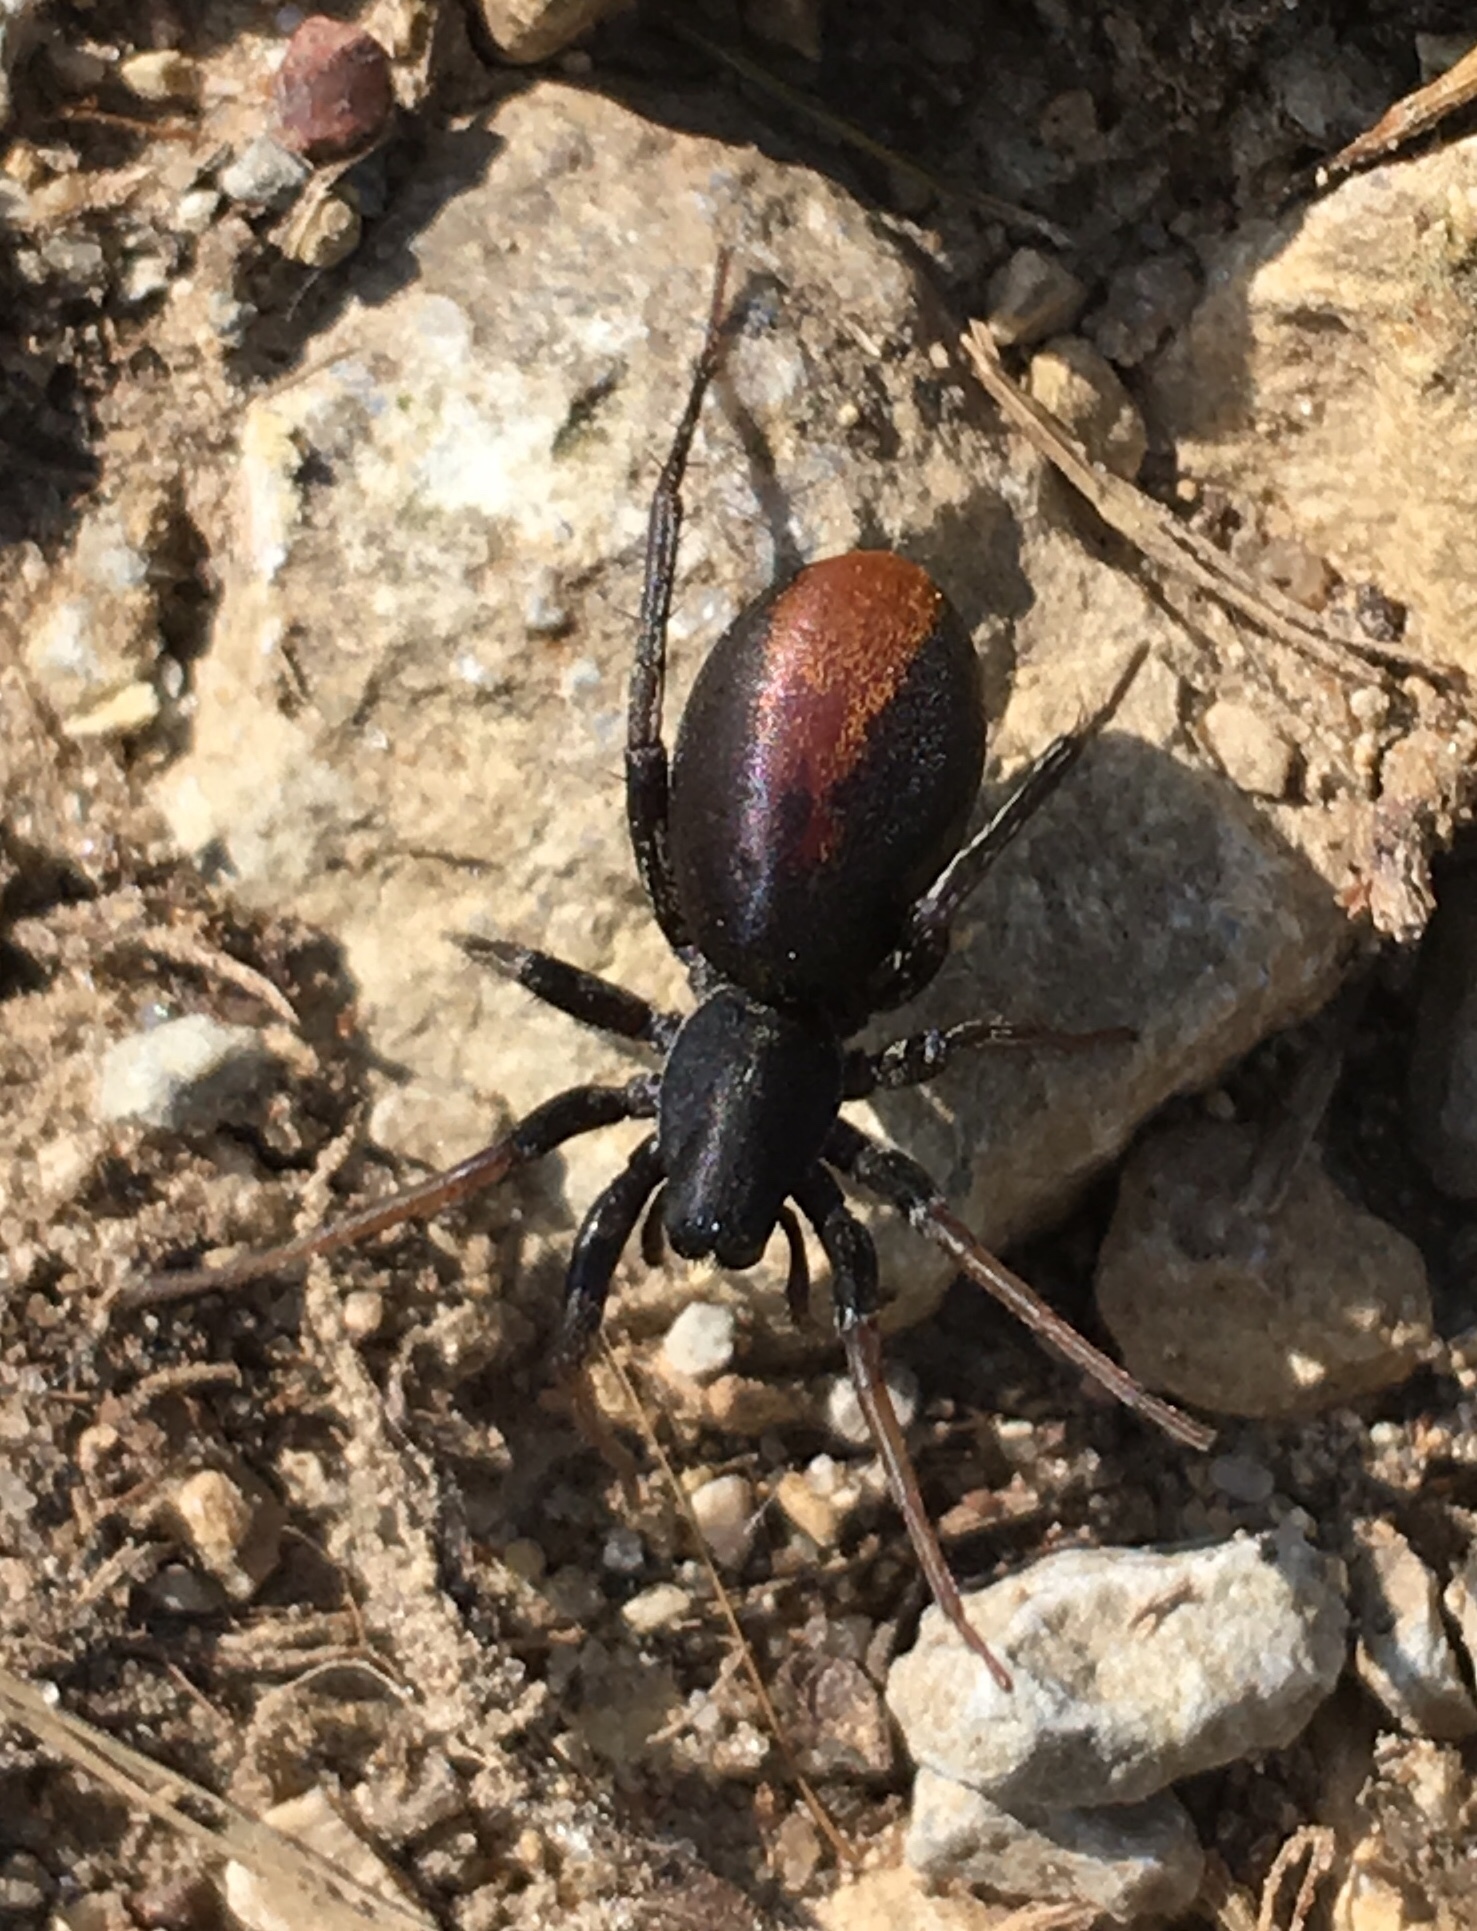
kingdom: Animalia
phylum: Arthropoda
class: Arachnida
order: Araneae
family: Corinnidae
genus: Castianeira
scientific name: Castianeira descripta
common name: Red-spotted ant-mimic sac spider
